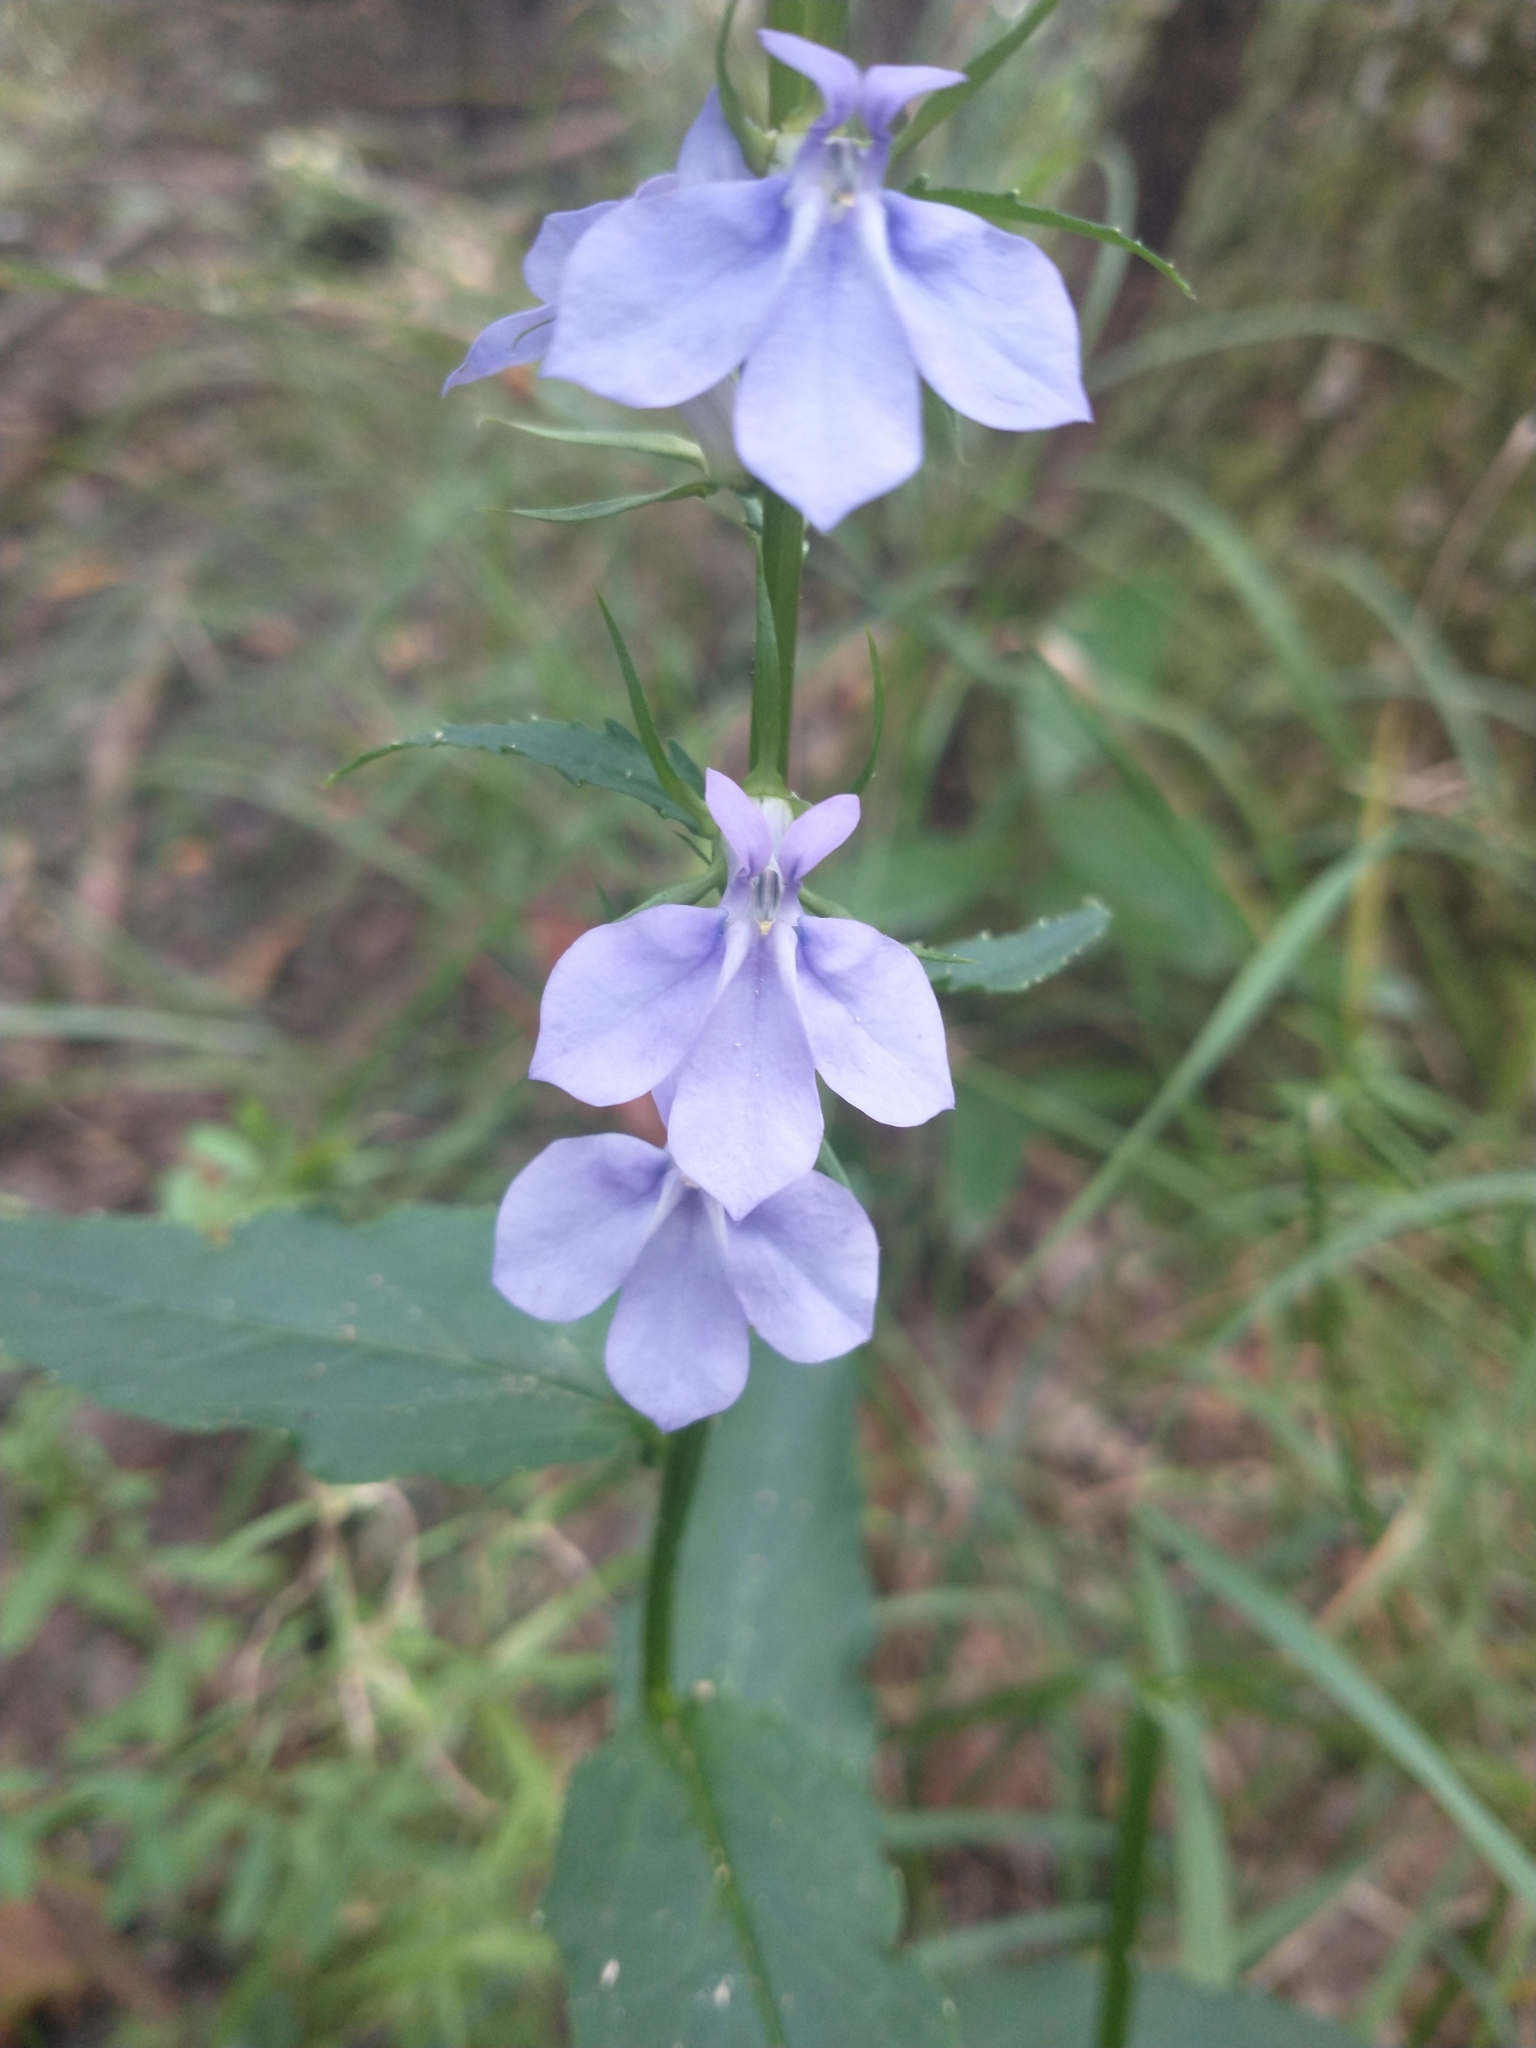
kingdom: Plantae
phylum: Tracheophyta
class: Magnoliopsida
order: Asterales
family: Campanulaceae
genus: Lobelia
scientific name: Lobelia amoena
